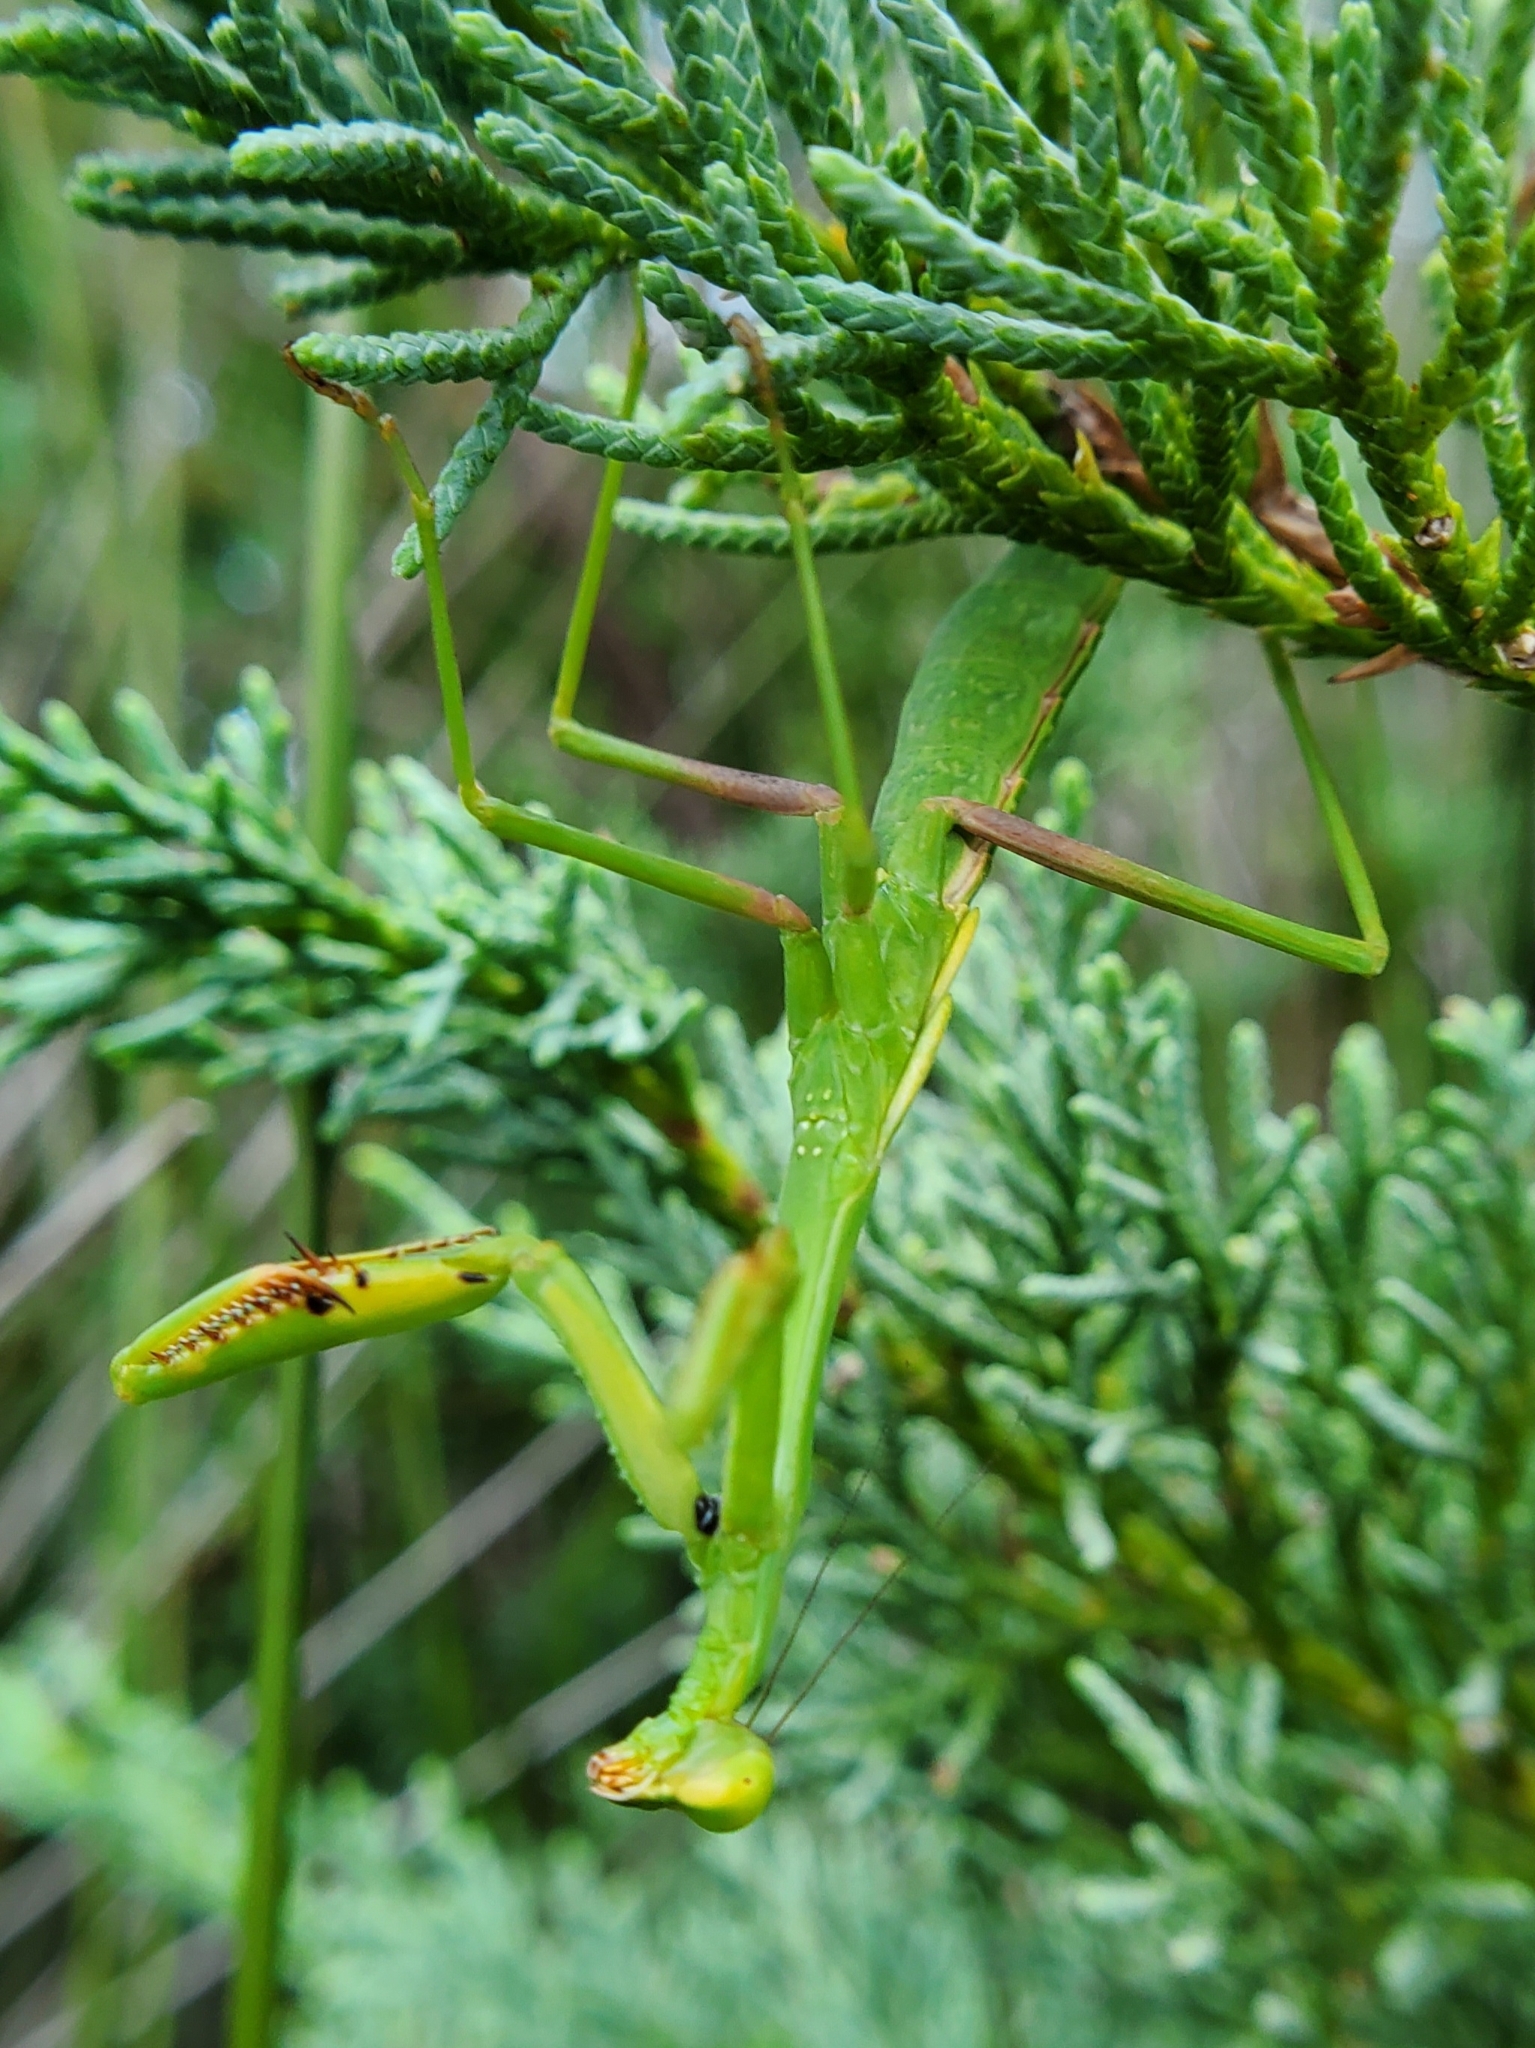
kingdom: Animalia
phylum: Arthropoda
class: Insecta
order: Mantodea
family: Mantidae
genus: Stagmomantis
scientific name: Stagmomantis carolina
